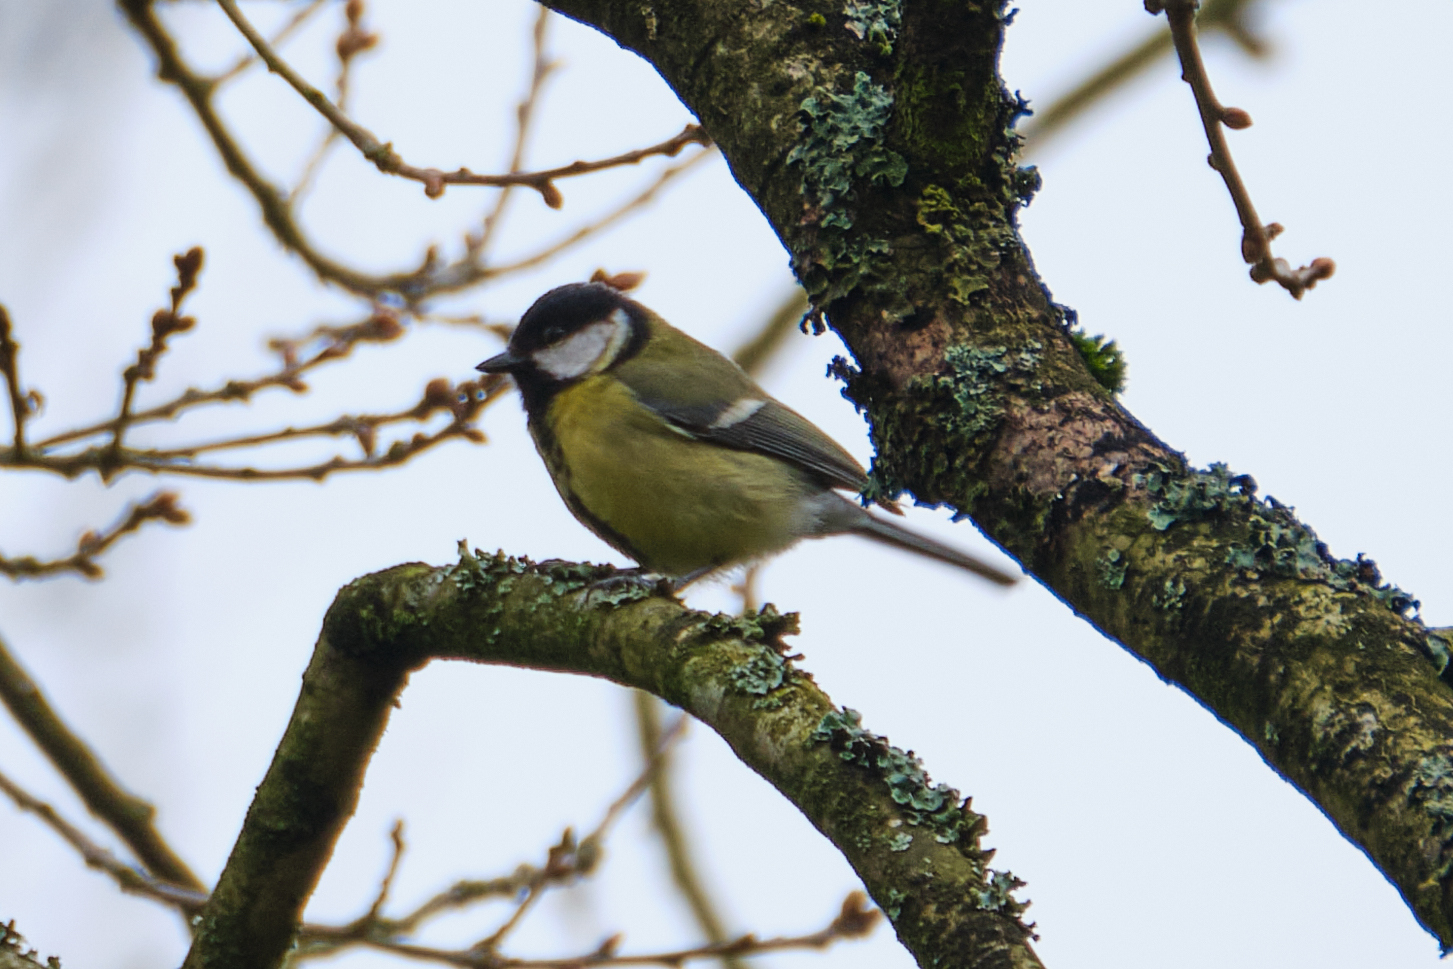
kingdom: Animalia
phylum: Chordata
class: Aves
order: Passeriformes
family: Paridae
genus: Parus
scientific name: Parus major
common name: Great tit
